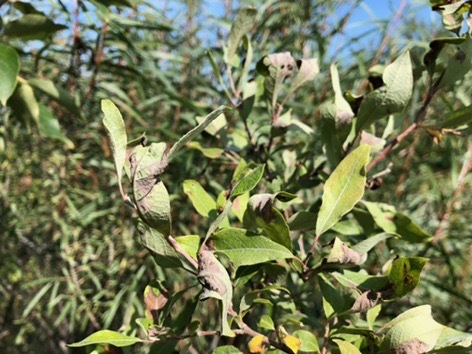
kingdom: Plantae
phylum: Tracheophyta
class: Magnoliopsida
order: Malpighiales
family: Salicaceae
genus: Salix
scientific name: Salix bebbiana
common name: Bebb's willow
